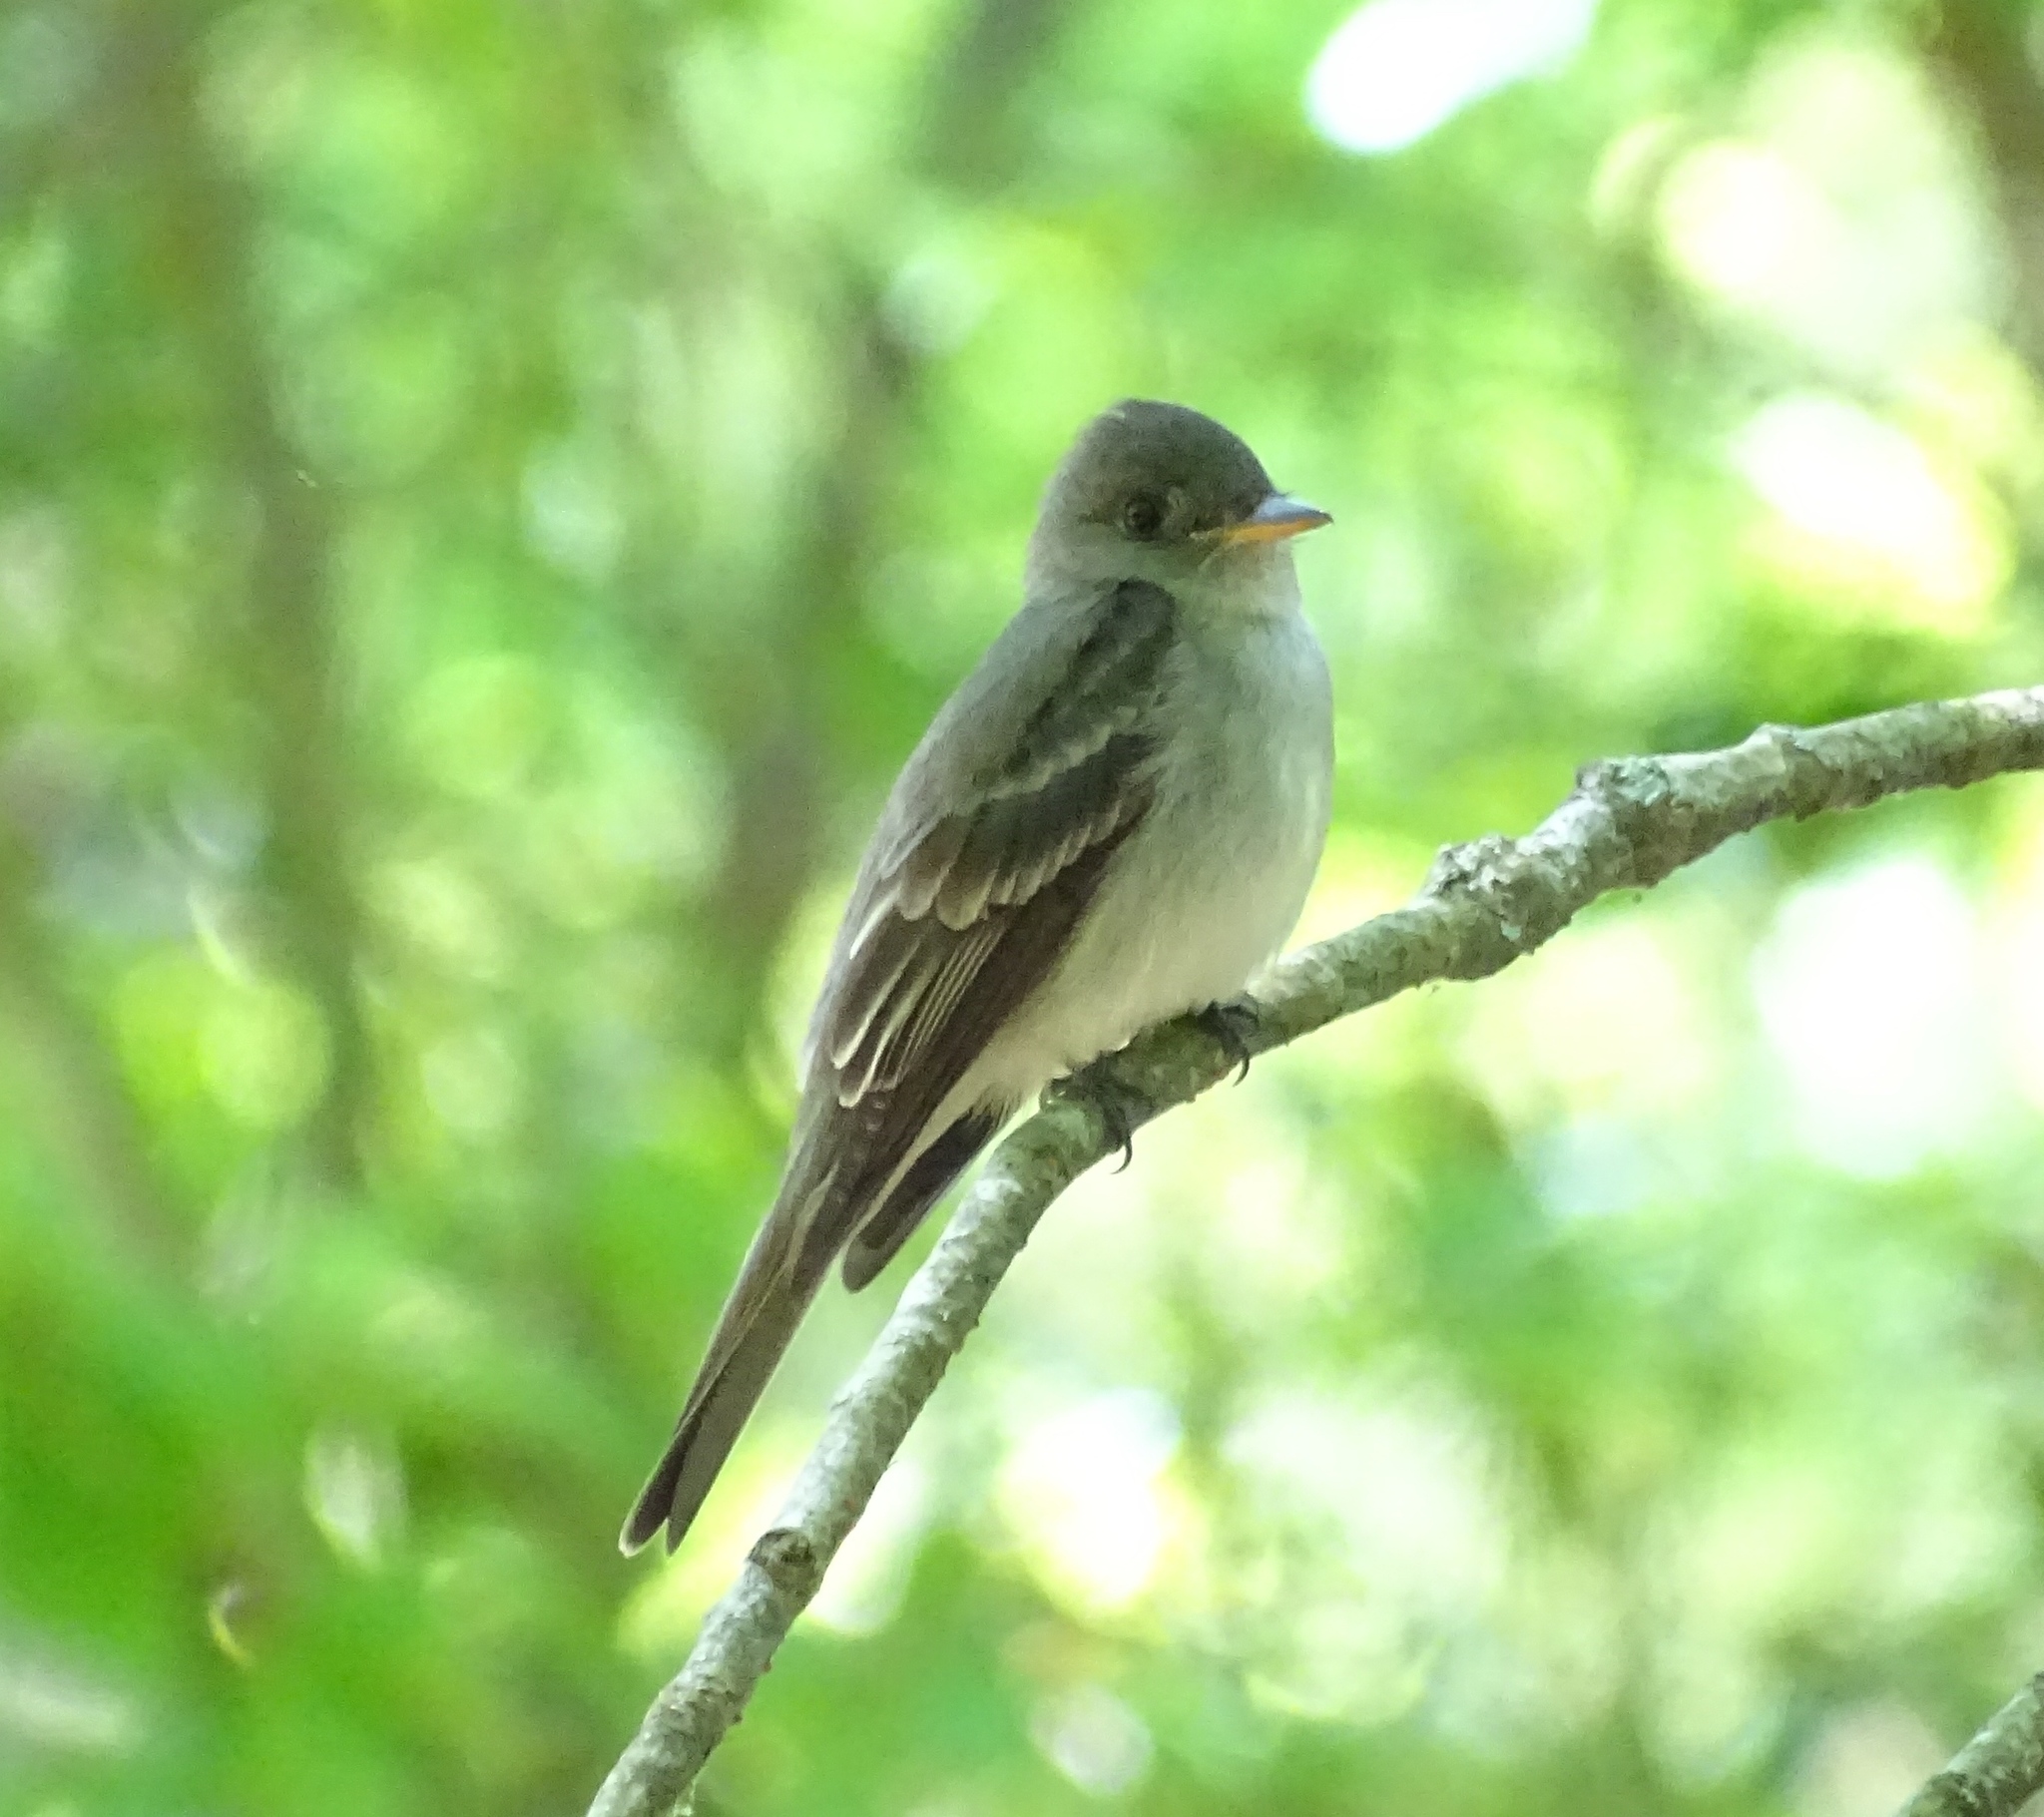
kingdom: Animalia
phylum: Chordata
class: Aves
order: Passeriformes
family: Tyrannidae
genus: Contopus
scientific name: Contopus virens
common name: Eastern wood-pewee
